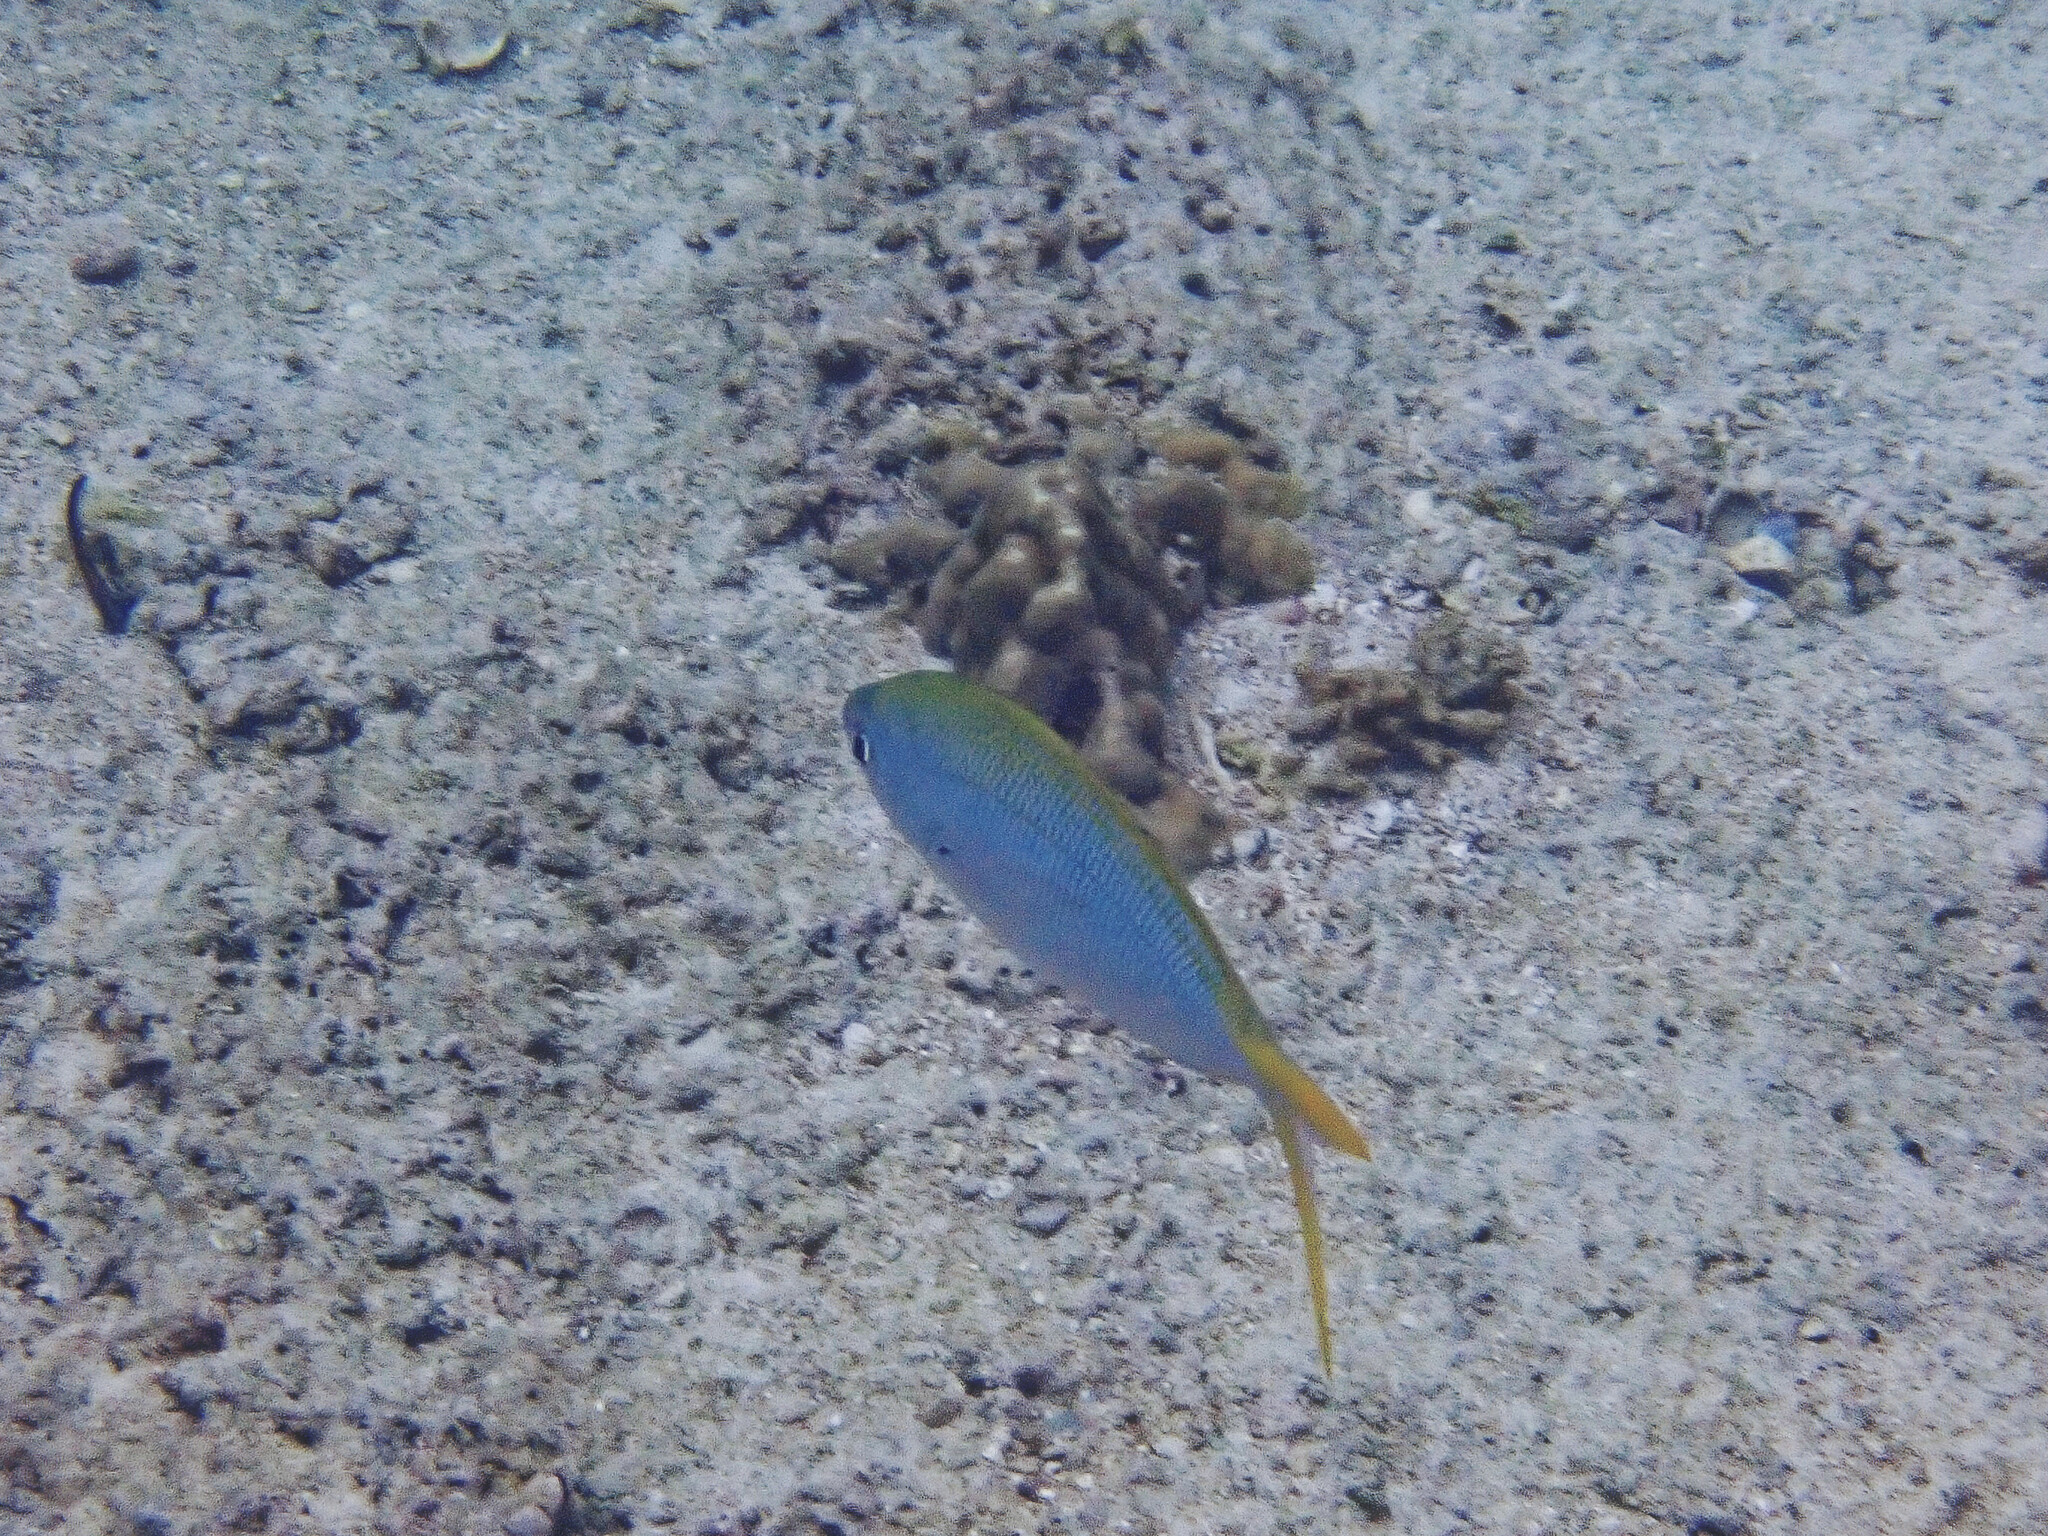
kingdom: Animalia
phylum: Chordata
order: Perciformes
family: Caesionidae
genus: Caesio
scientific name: Caesio cuning
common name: Red-bellied fusilier
